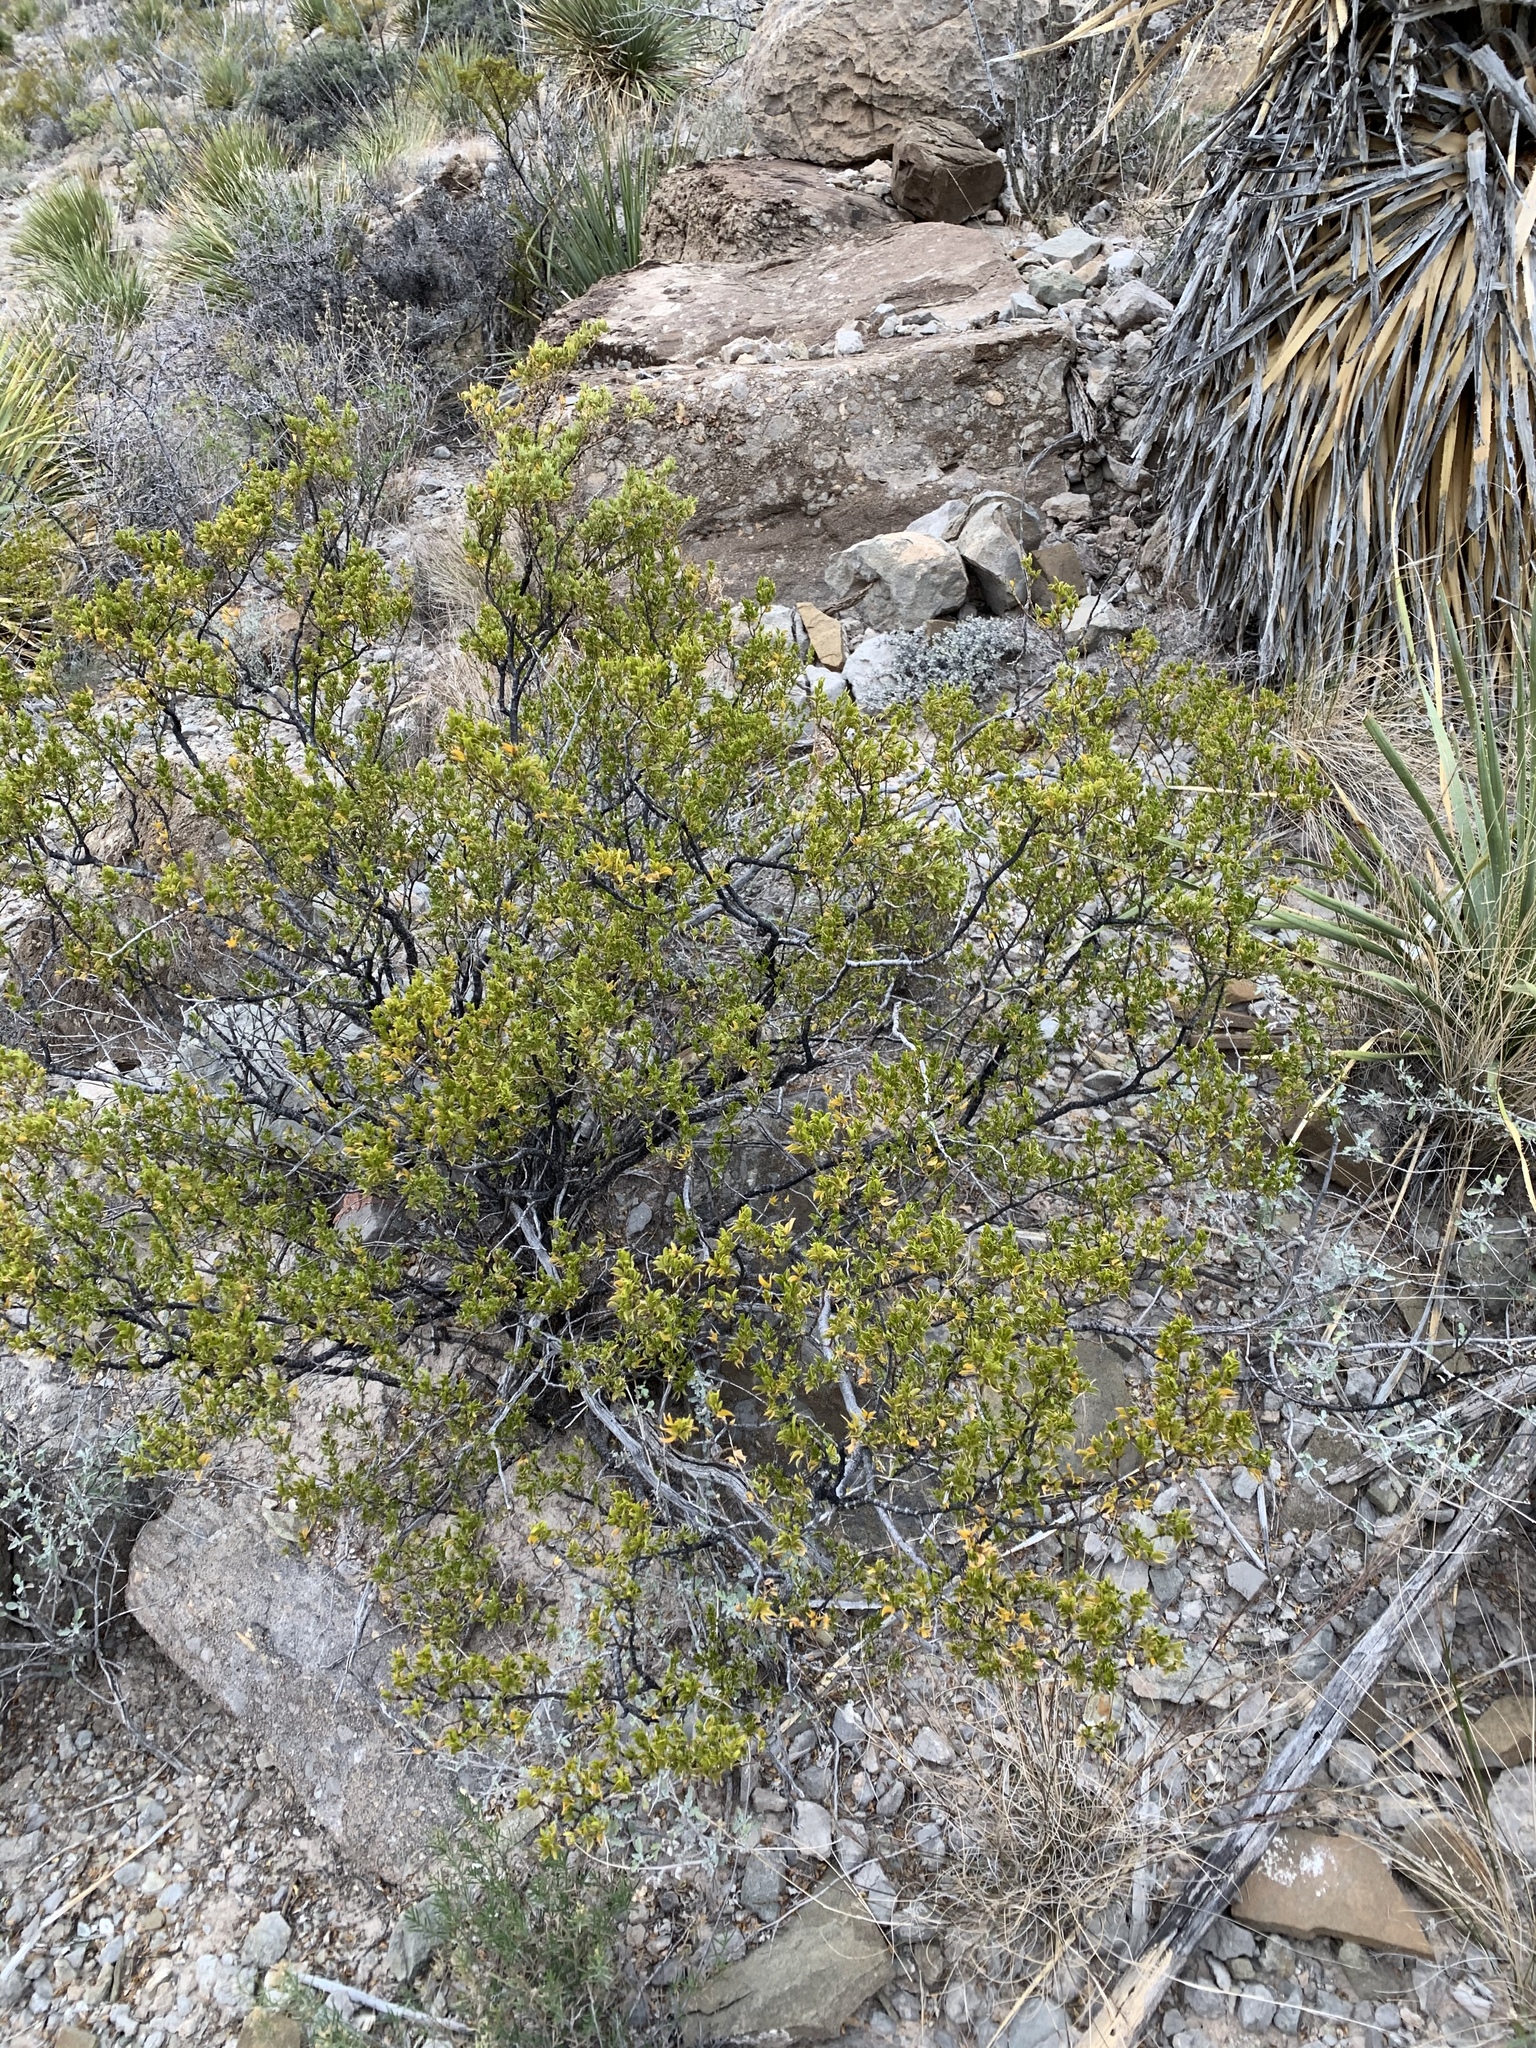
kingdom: Plantae
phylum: Tracheophyta
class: Magnoliopsida
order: Zygophyllales
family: Zygophyllaceae
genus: Larrea
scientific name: Larrea tridentata
